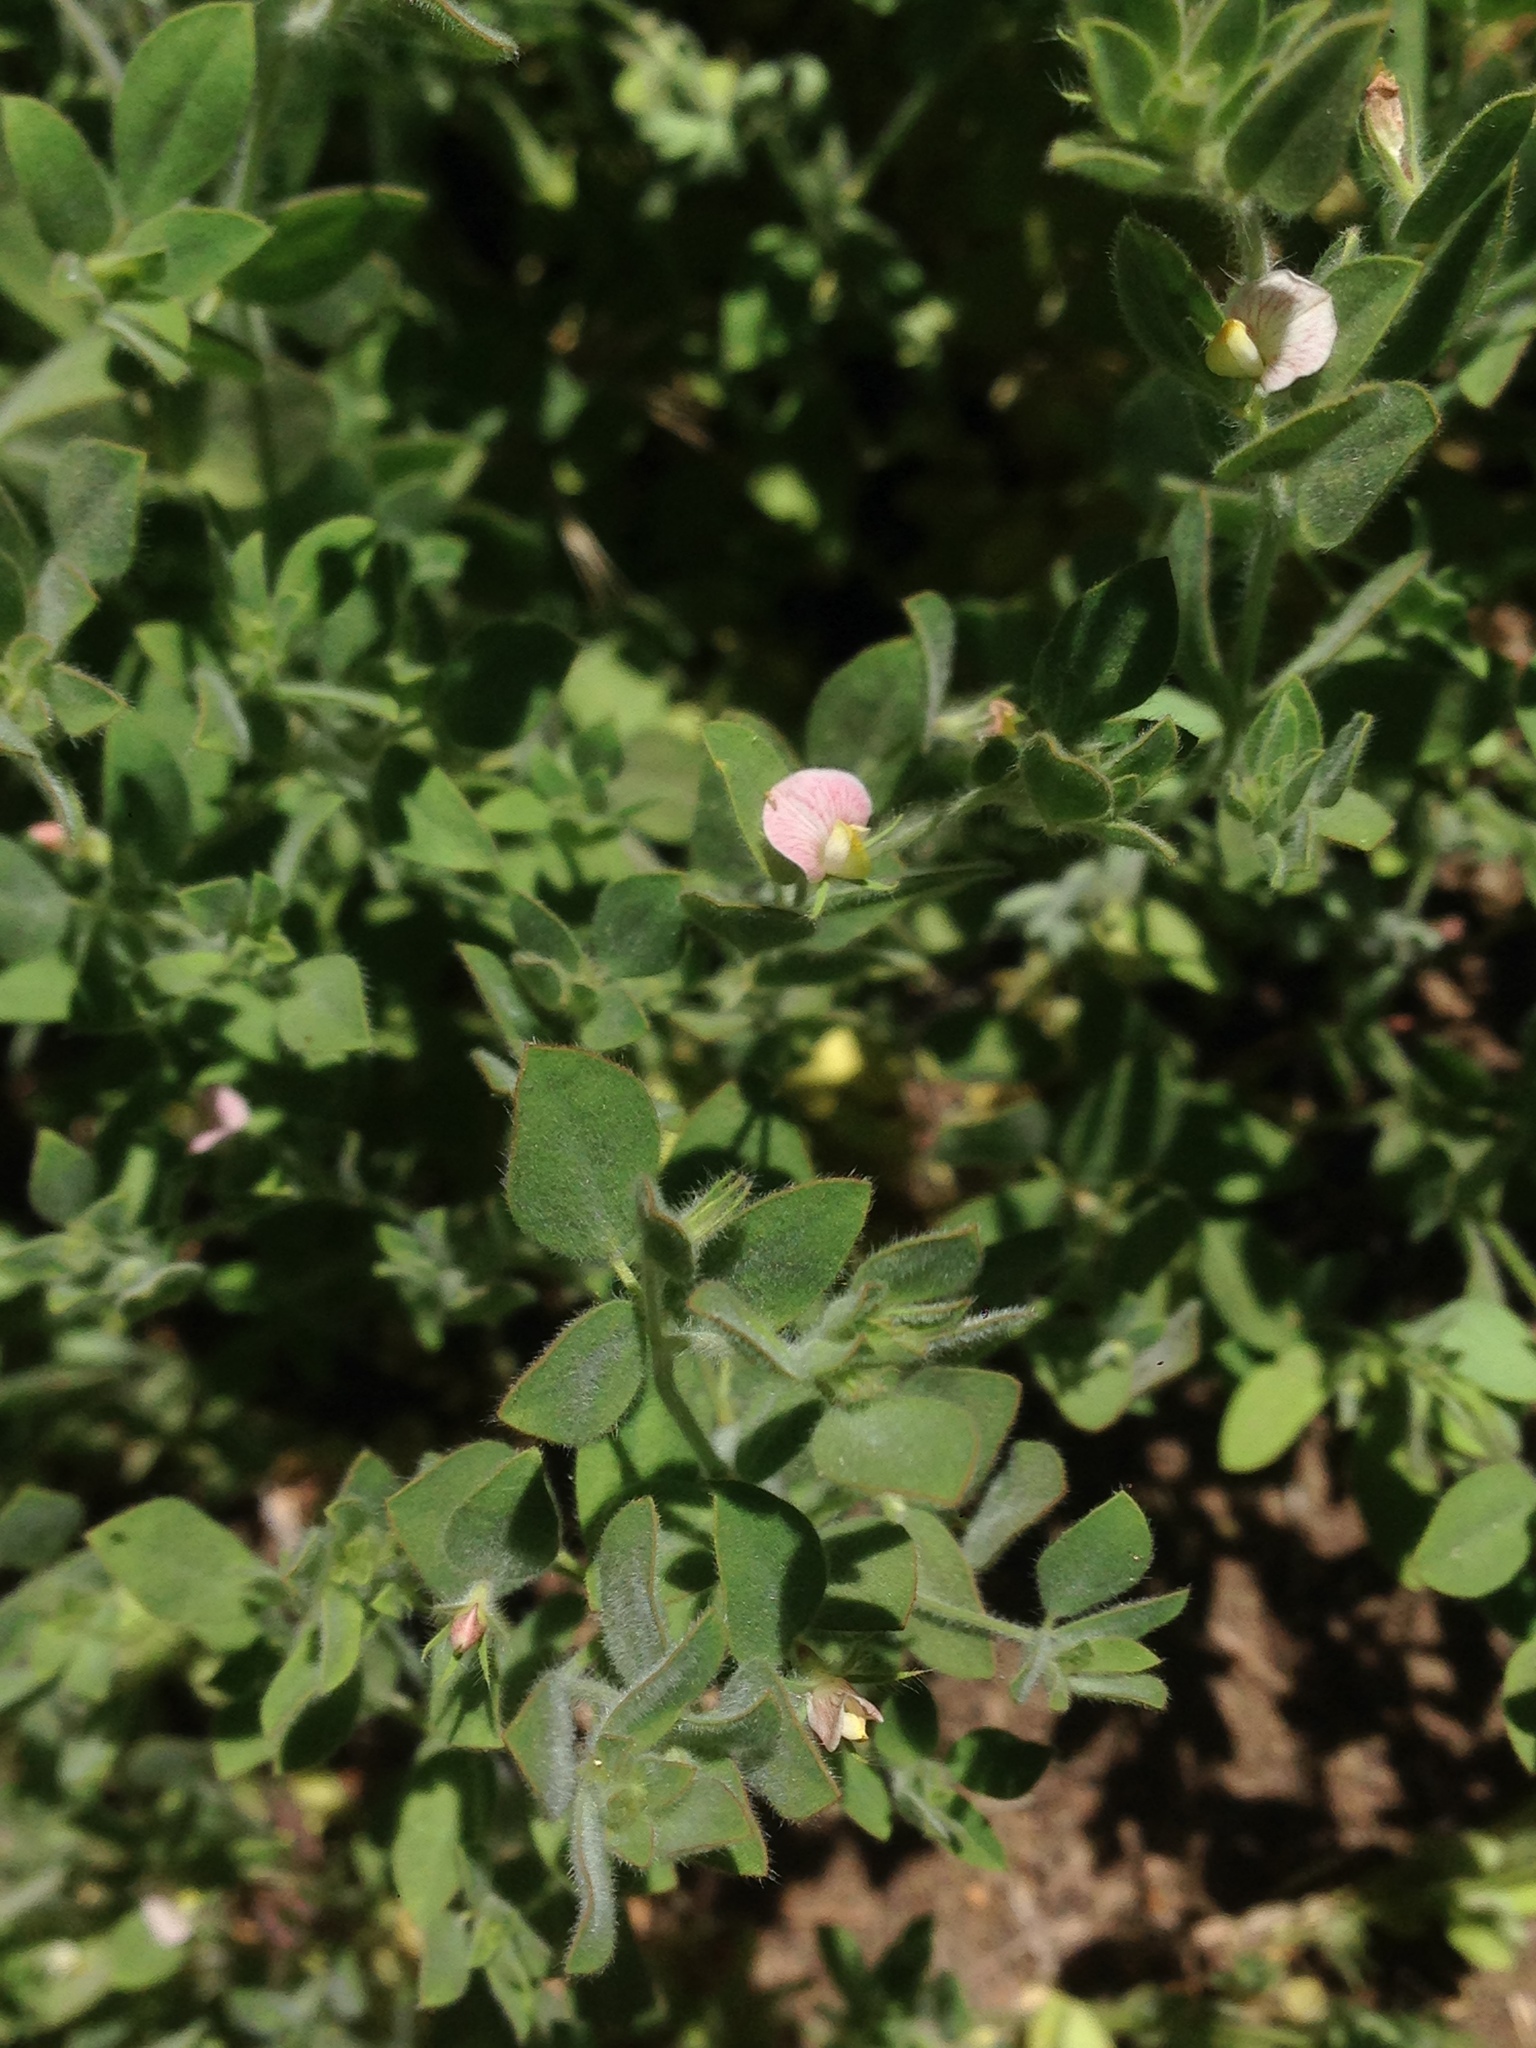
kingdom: Plantae
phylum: Tracheophyta
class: Magnoliopsida
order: Fabales
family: Fabaceae
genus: Acmispon
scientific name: Acmispon americanus
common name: American bird's-foot trefoil
